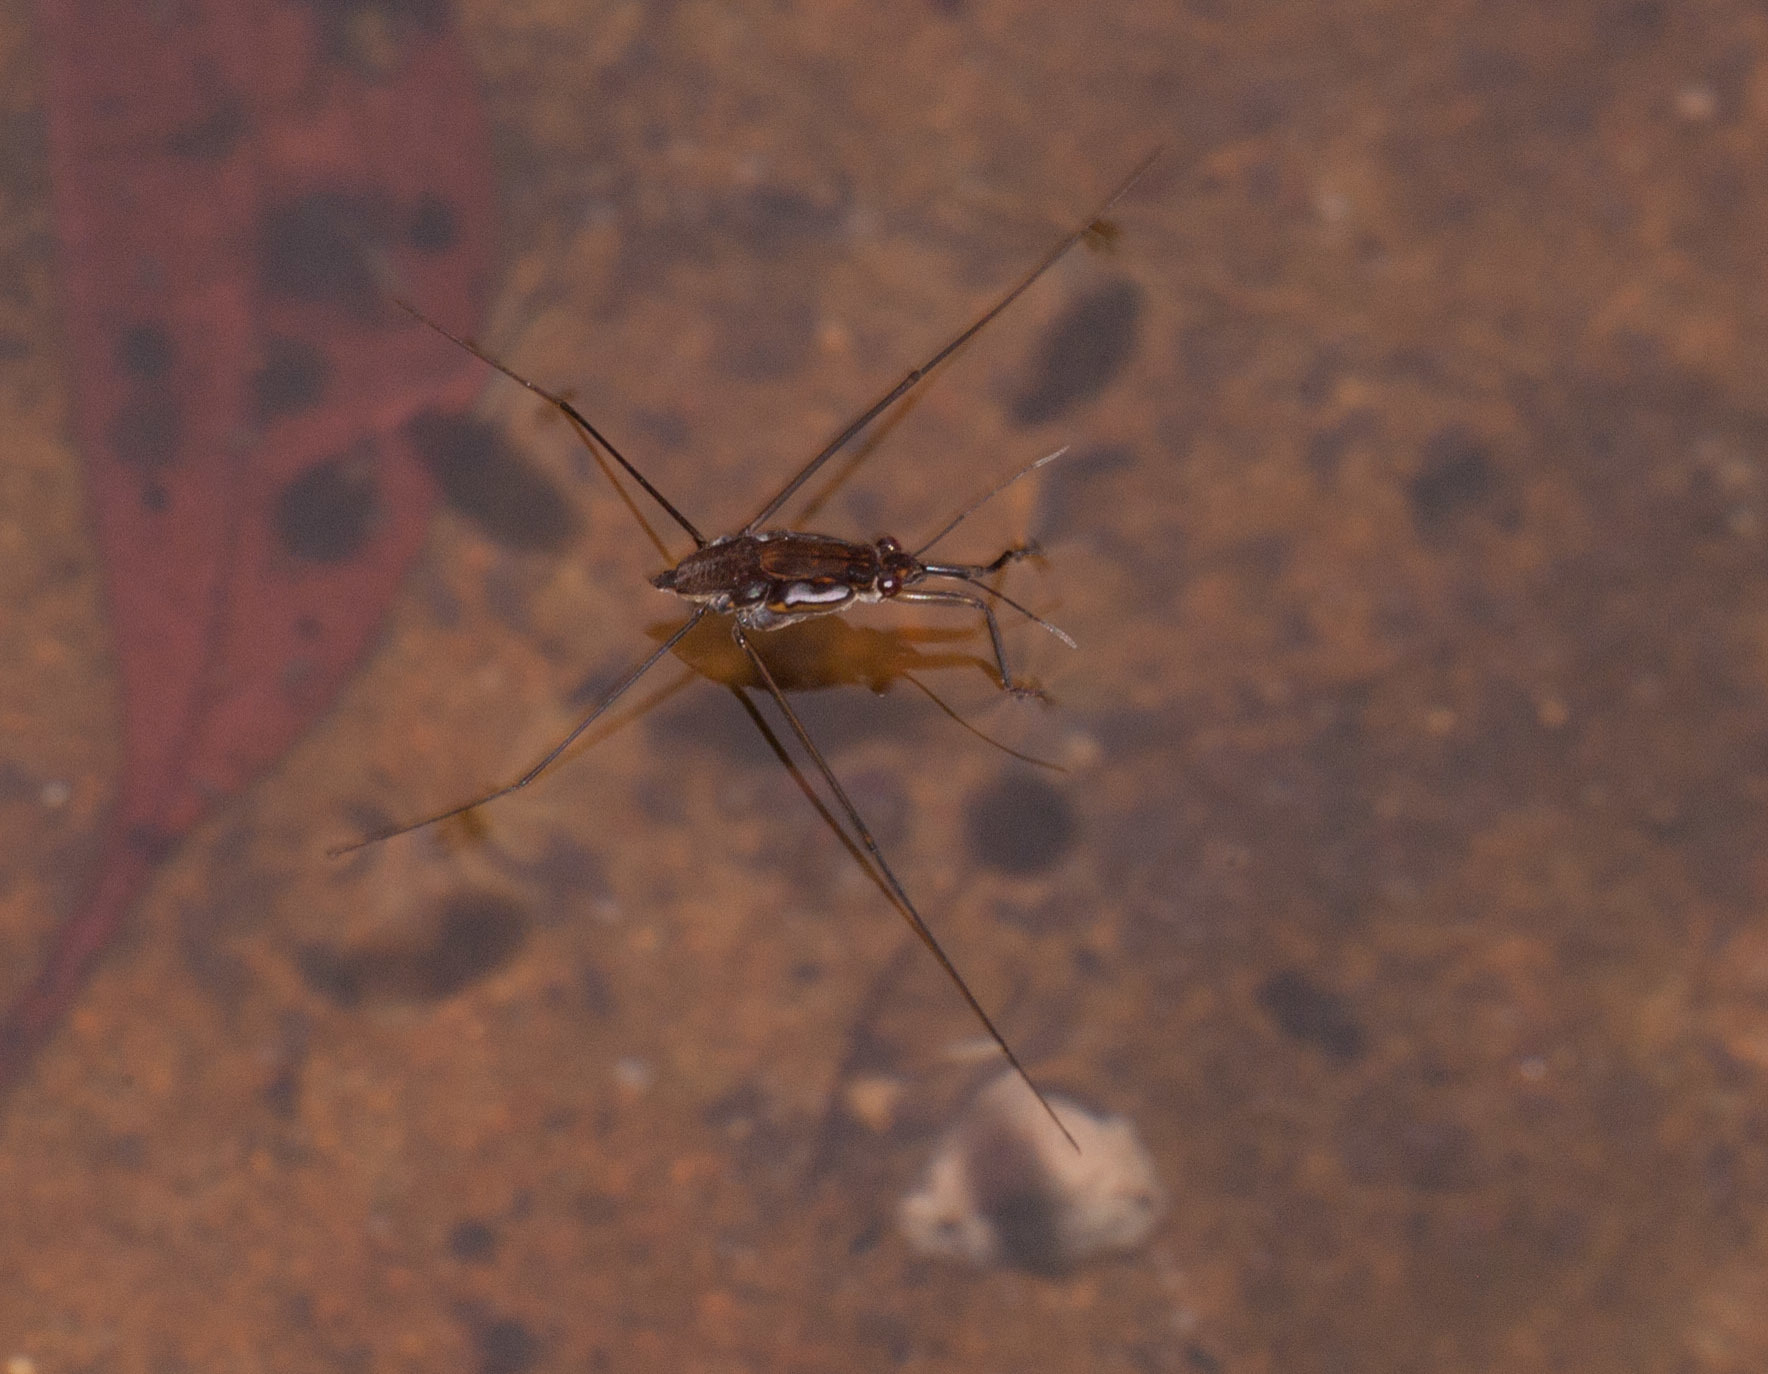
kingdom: Animalia
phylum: Arthropoda
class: Insecta
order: Hemiptera
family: Gerridae
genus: Tenagogerris
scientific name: Tenagogerris euphrosyne
